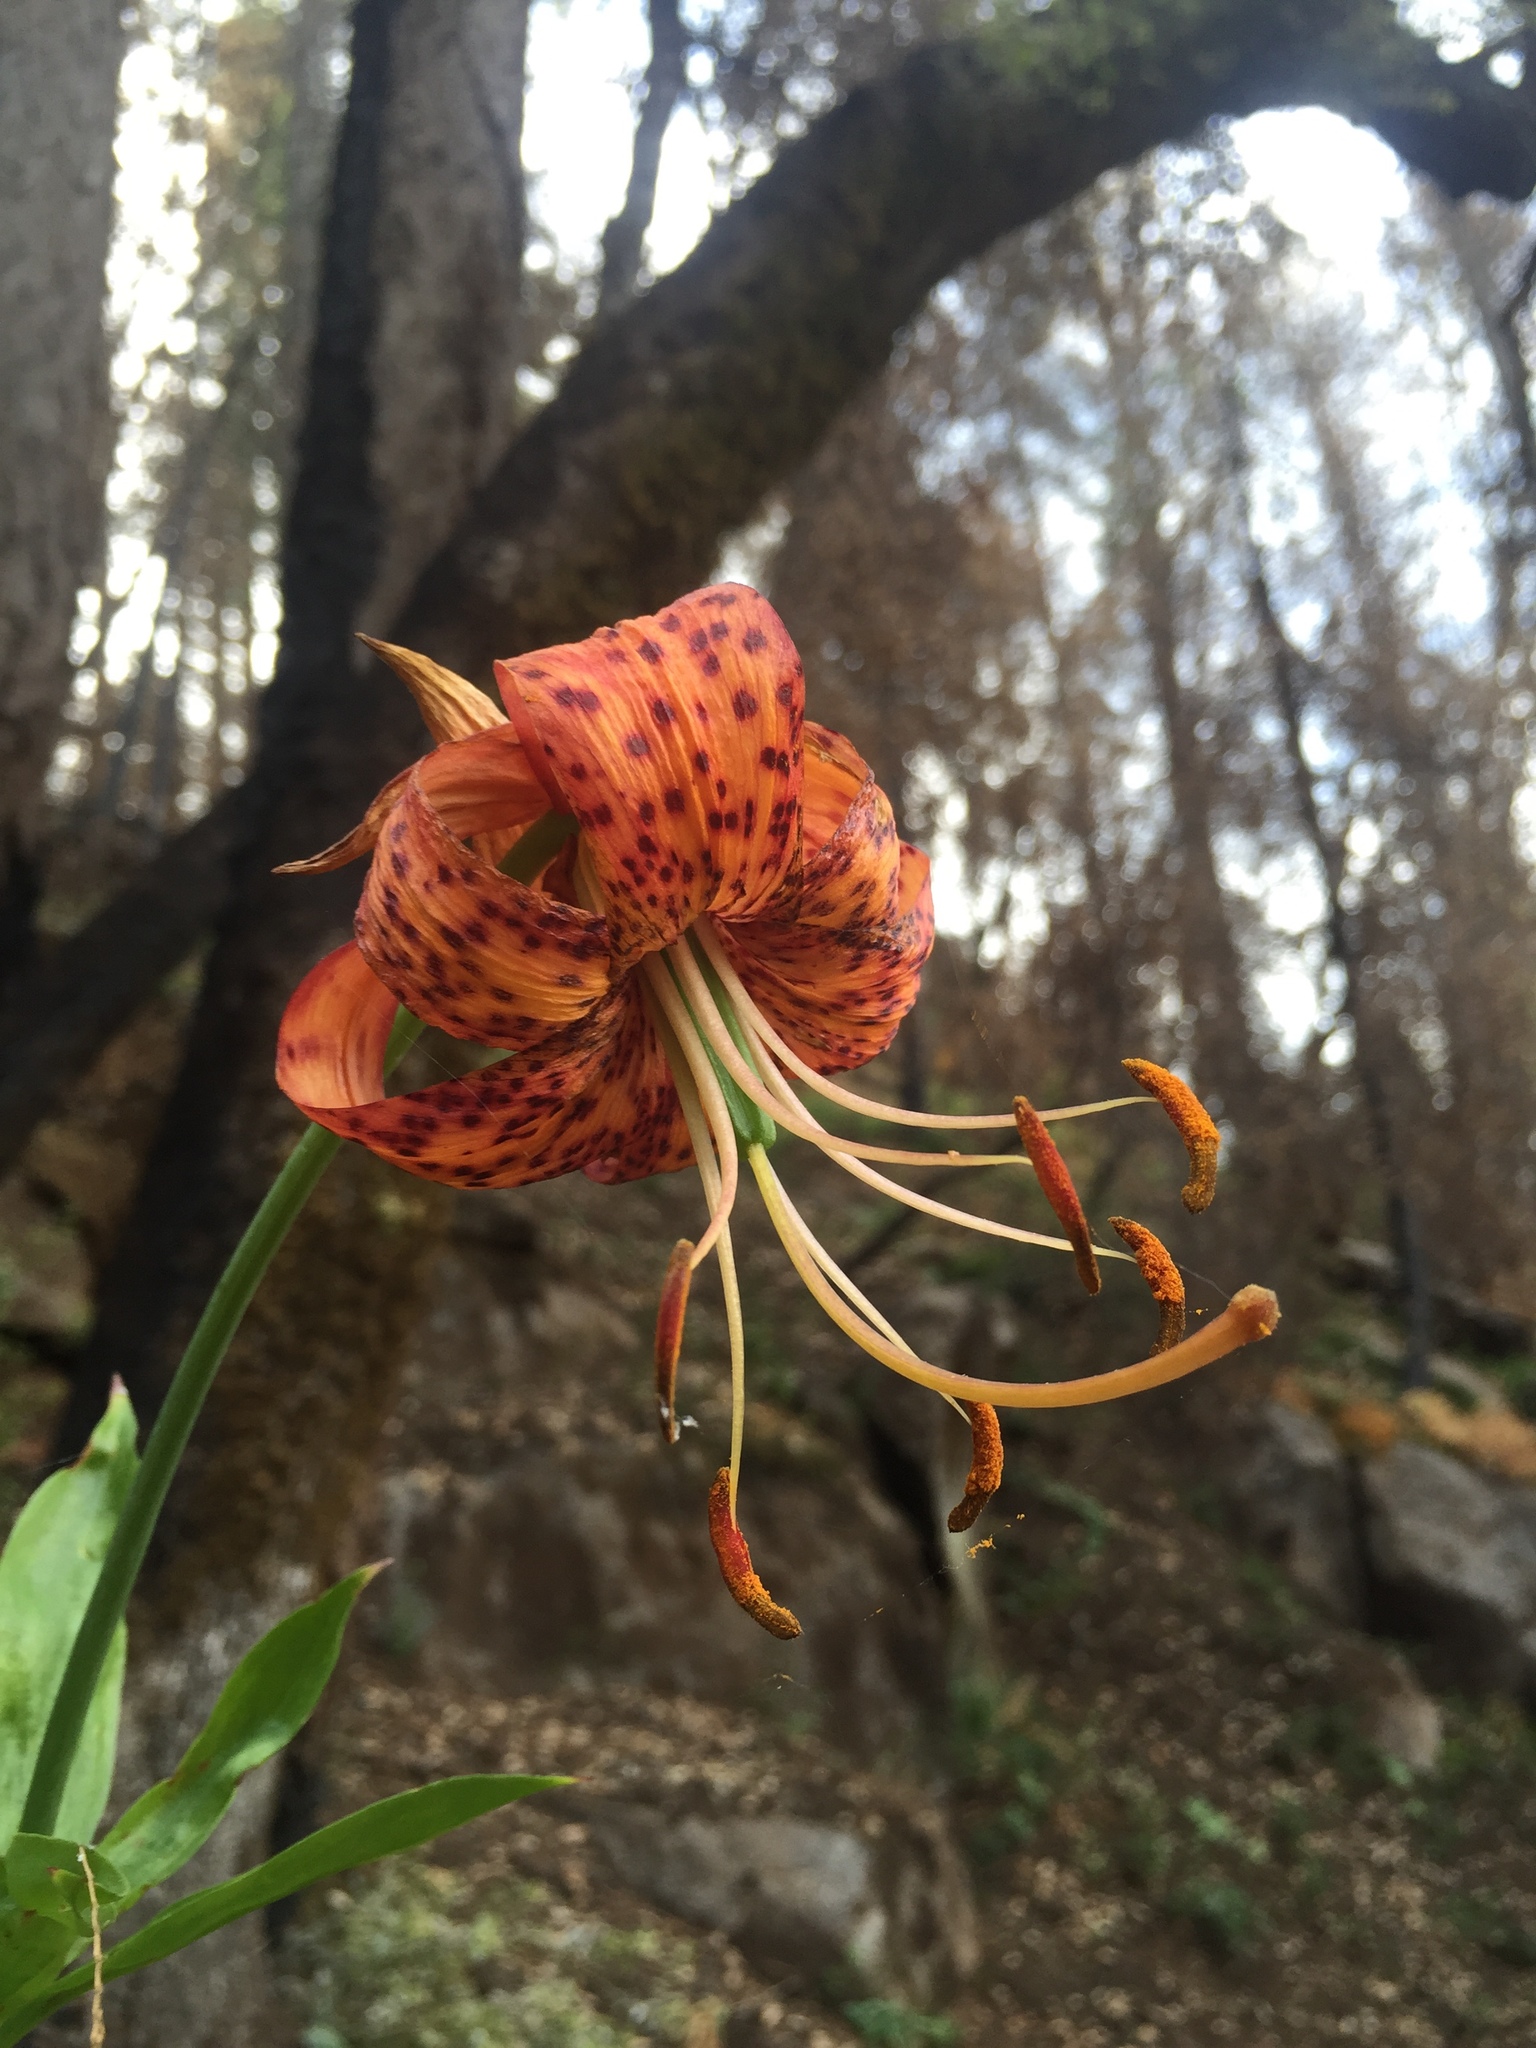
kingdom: Plantae
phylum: Tracheophyta
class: Liliopsida
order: Liliales
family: Liliaceae
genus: Lilium
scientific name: Lilium pardalinum
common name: Panther lily
